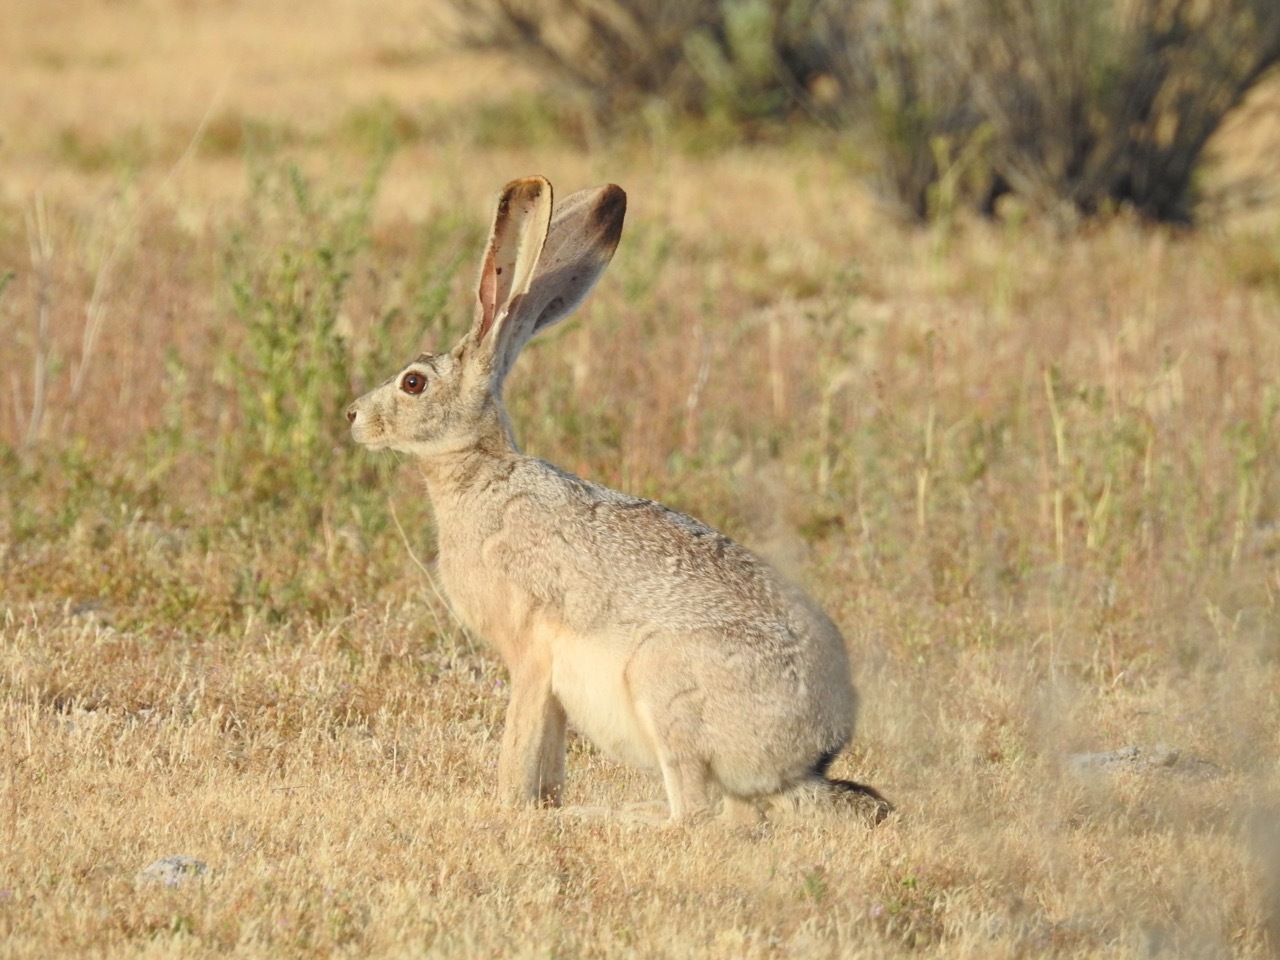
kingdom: Animalia
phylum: Chordata
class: Mammalia
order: Lagomorpha
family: Leporidae
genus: Lepus
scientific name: Lepus californicus
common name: Black-tailed jackrabbit
